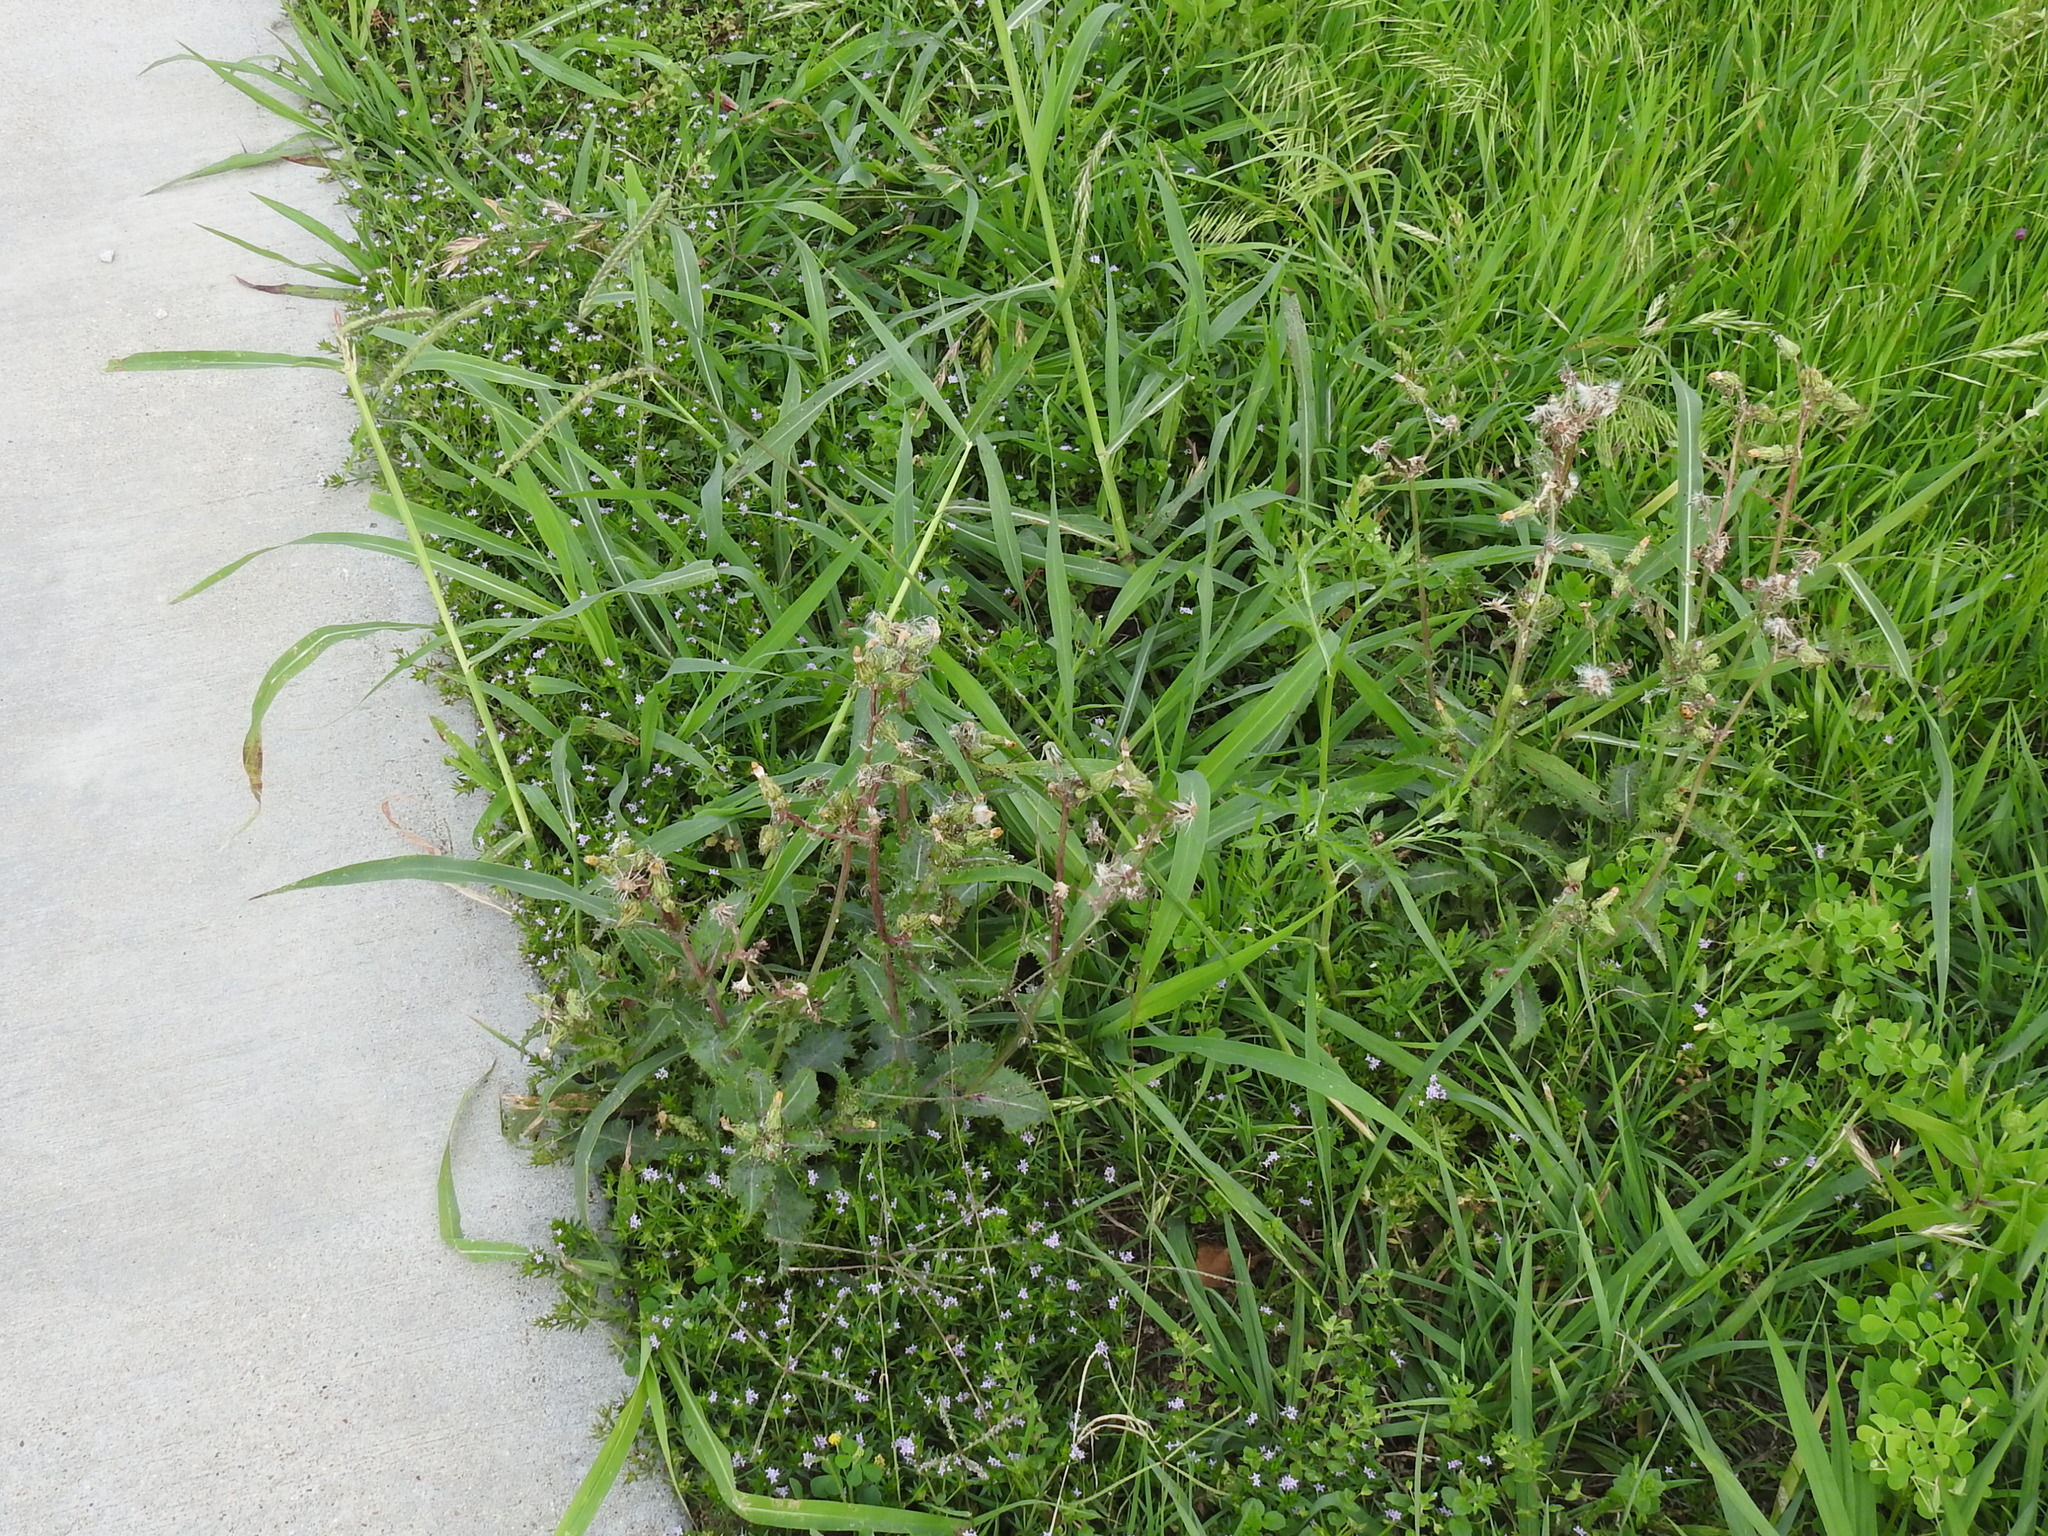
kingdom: Plantae
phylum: Tracheophyta
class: Liliopsida
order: Poales
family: Poaceae
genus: Paspalum
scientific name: Paspalum dilatatum
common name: Dallisgrass
